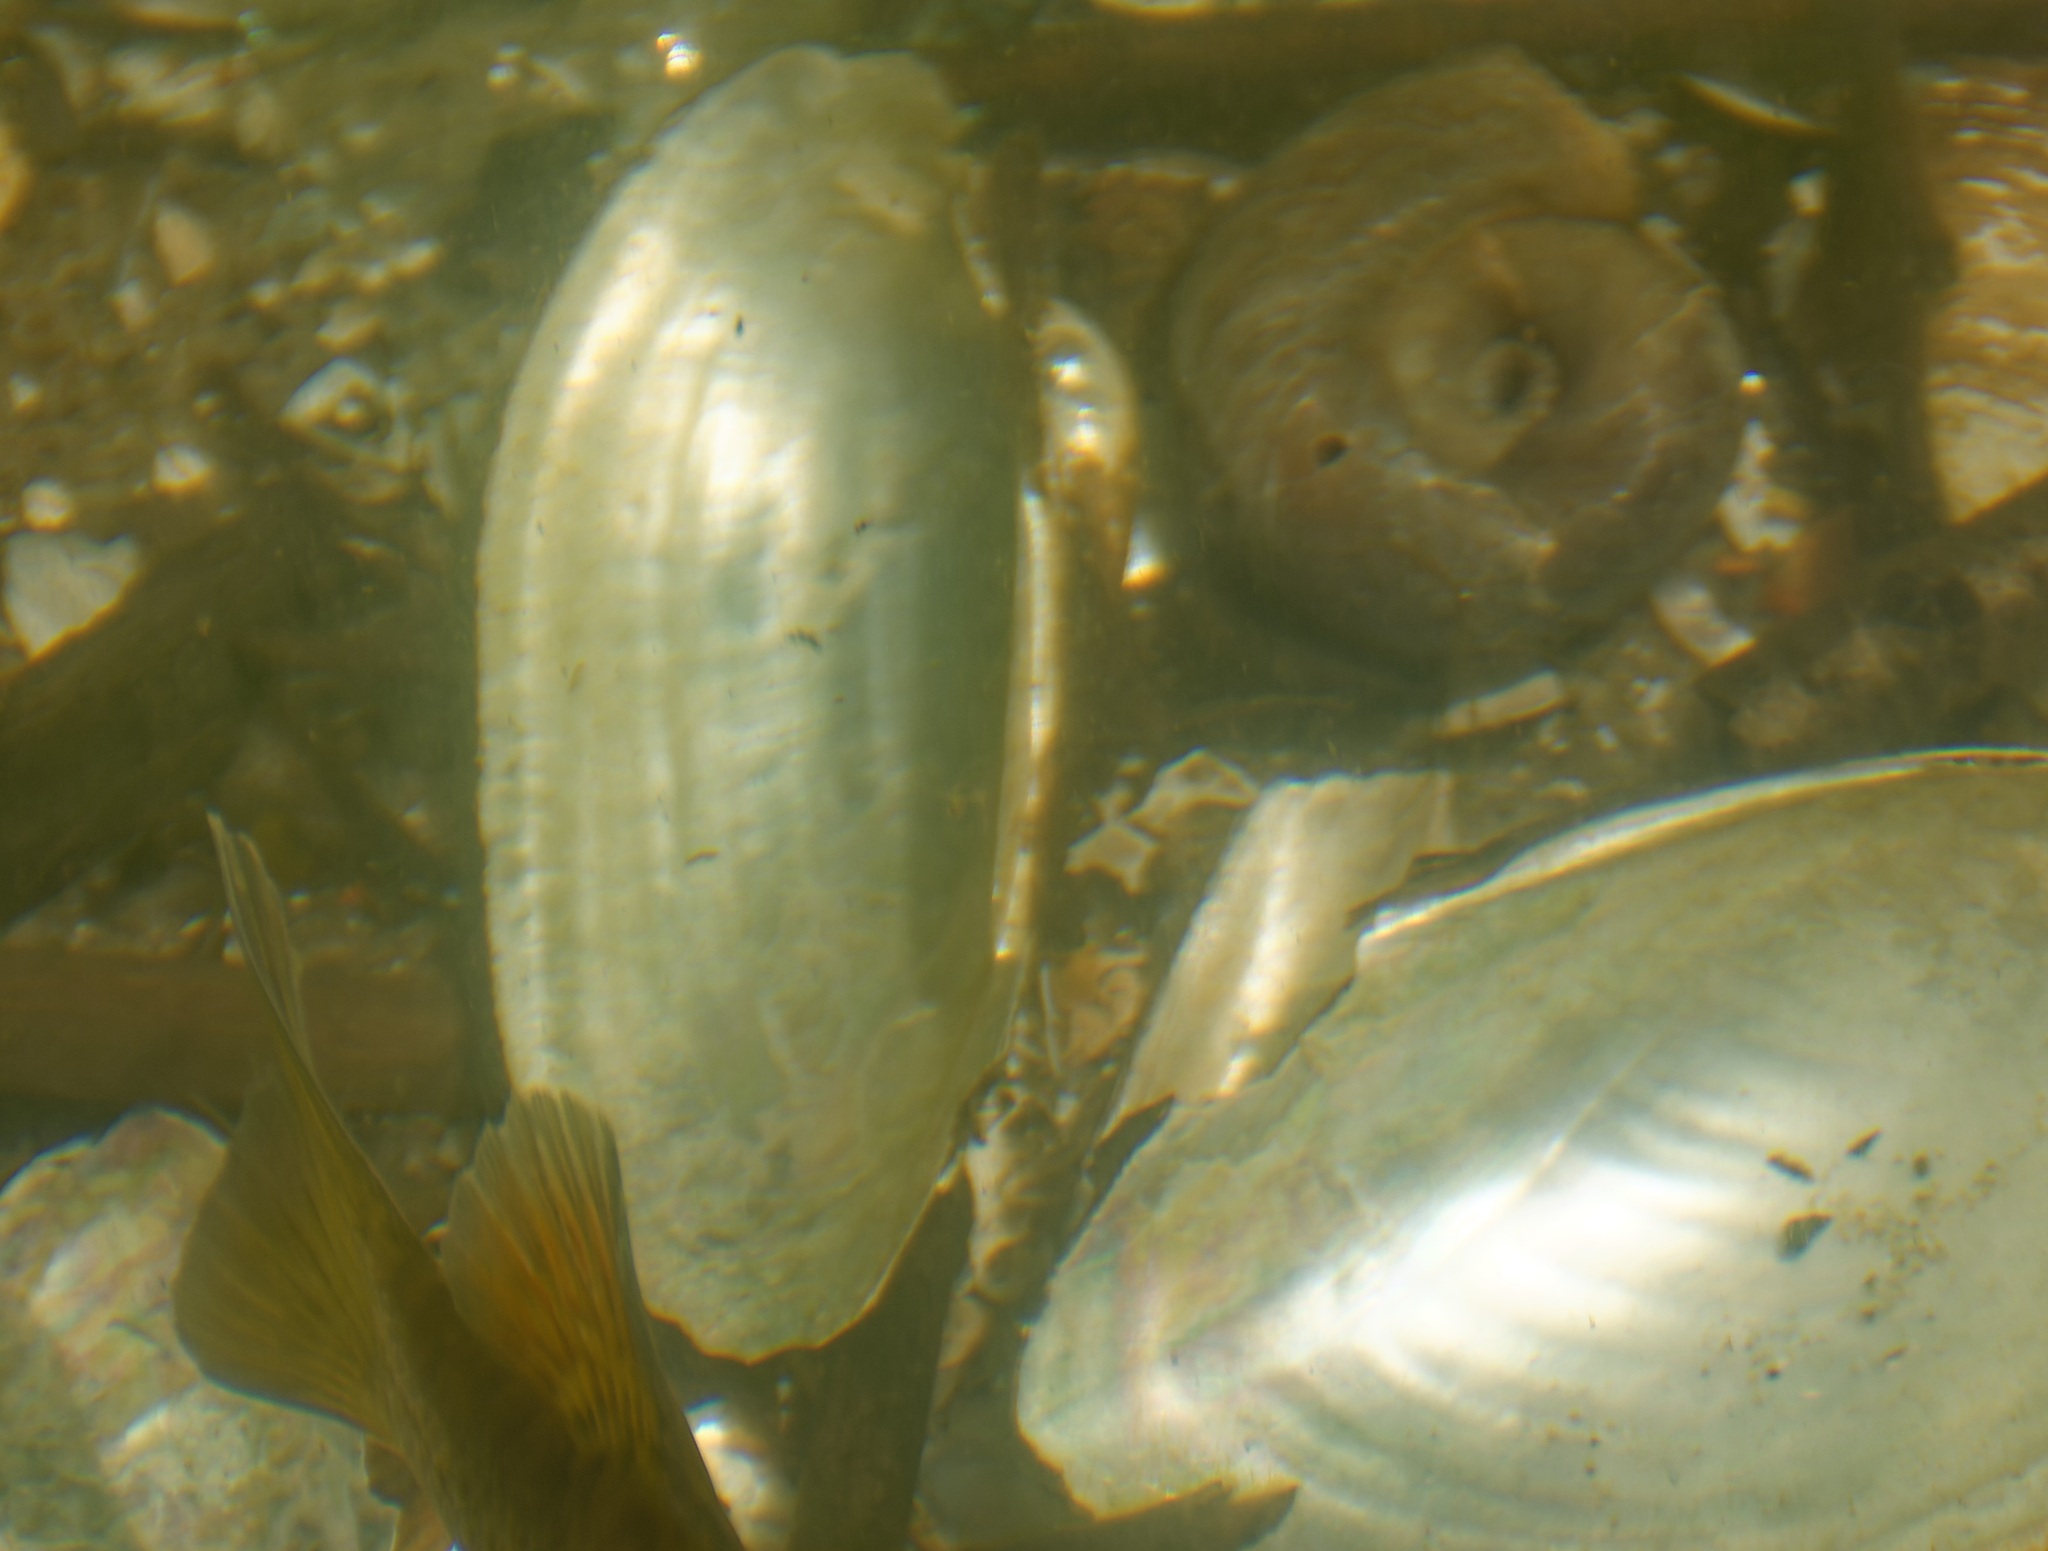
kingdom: Animalia
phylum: Mollusca
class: Bivalvia
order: Unionida
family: Unionidae
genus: Unio
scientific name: Unio pictorum
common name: Painter's mussel
